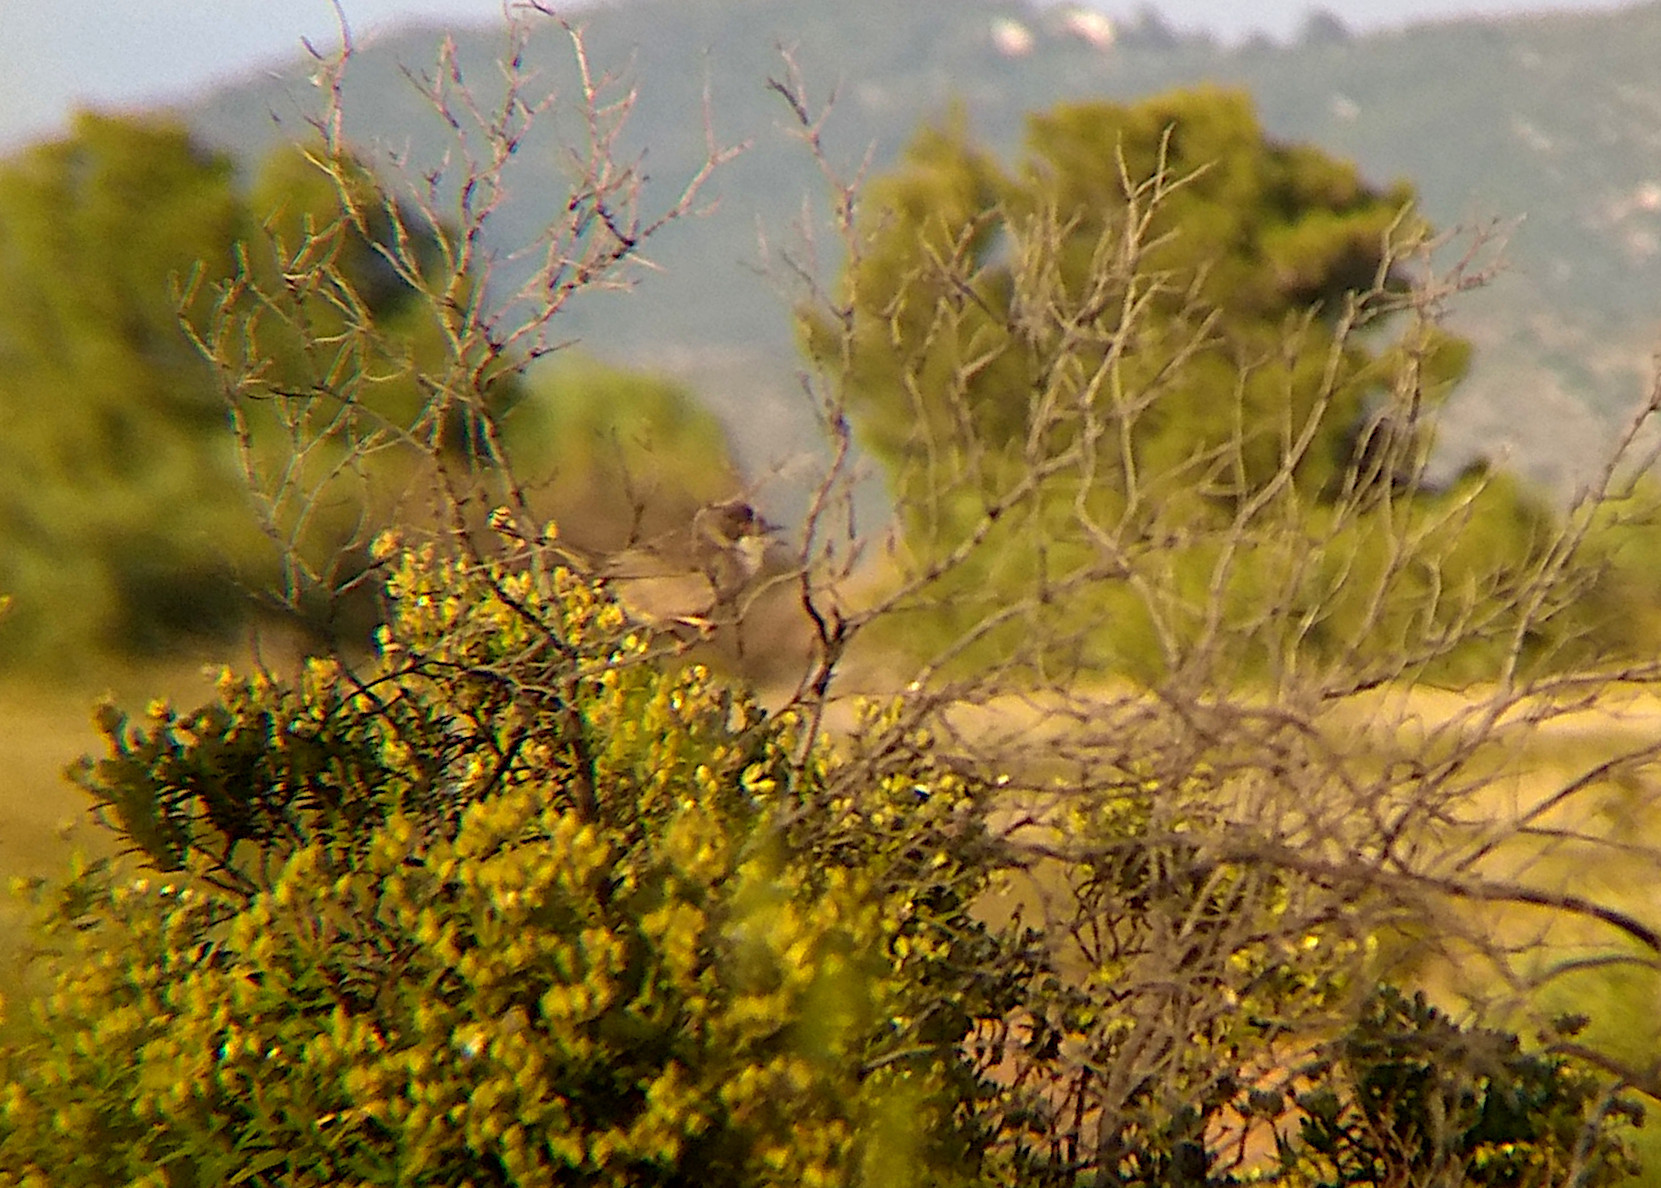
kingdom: Animalia
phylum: Chordata
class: Aves
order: Passeriformes
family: Sylviidae
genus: Curruca
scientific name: Curruca melanocephala
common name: Sardinian warbler
